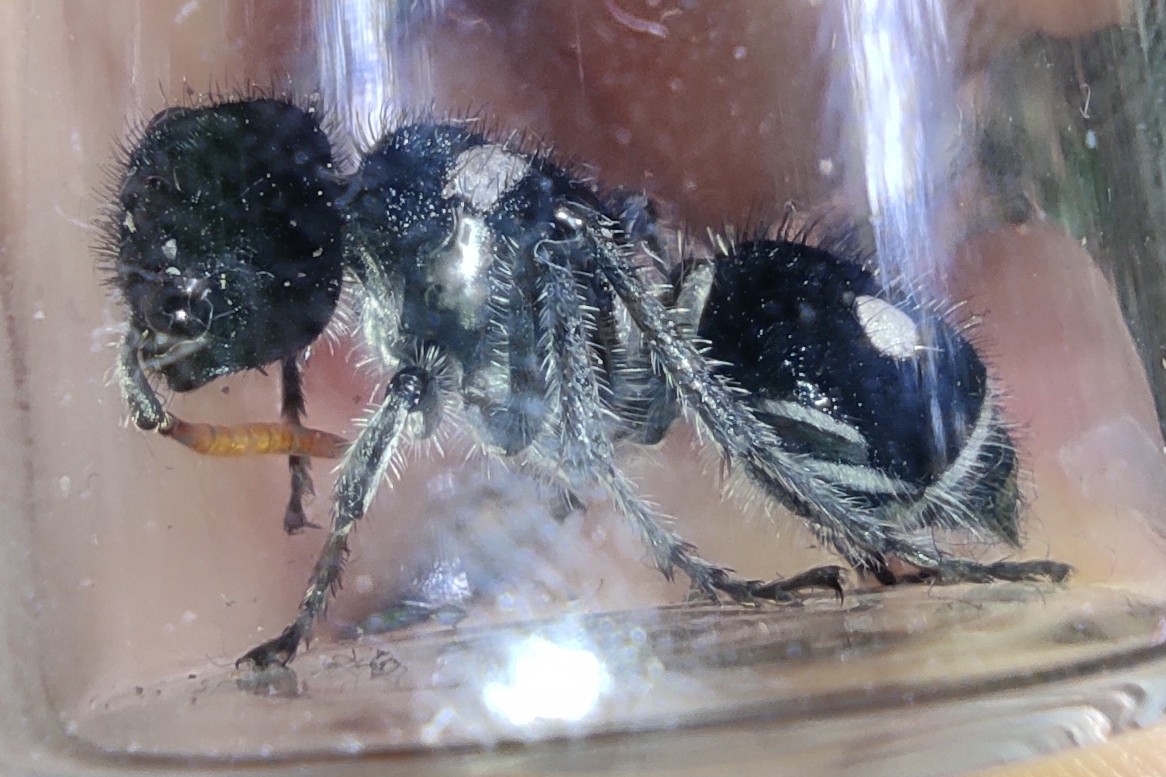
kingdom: Animalia
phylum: Arthropoda
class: Insecta
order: Hymenoptera
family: Mutillidae
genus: Hoplomutilla
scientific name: Hoplomutilla
